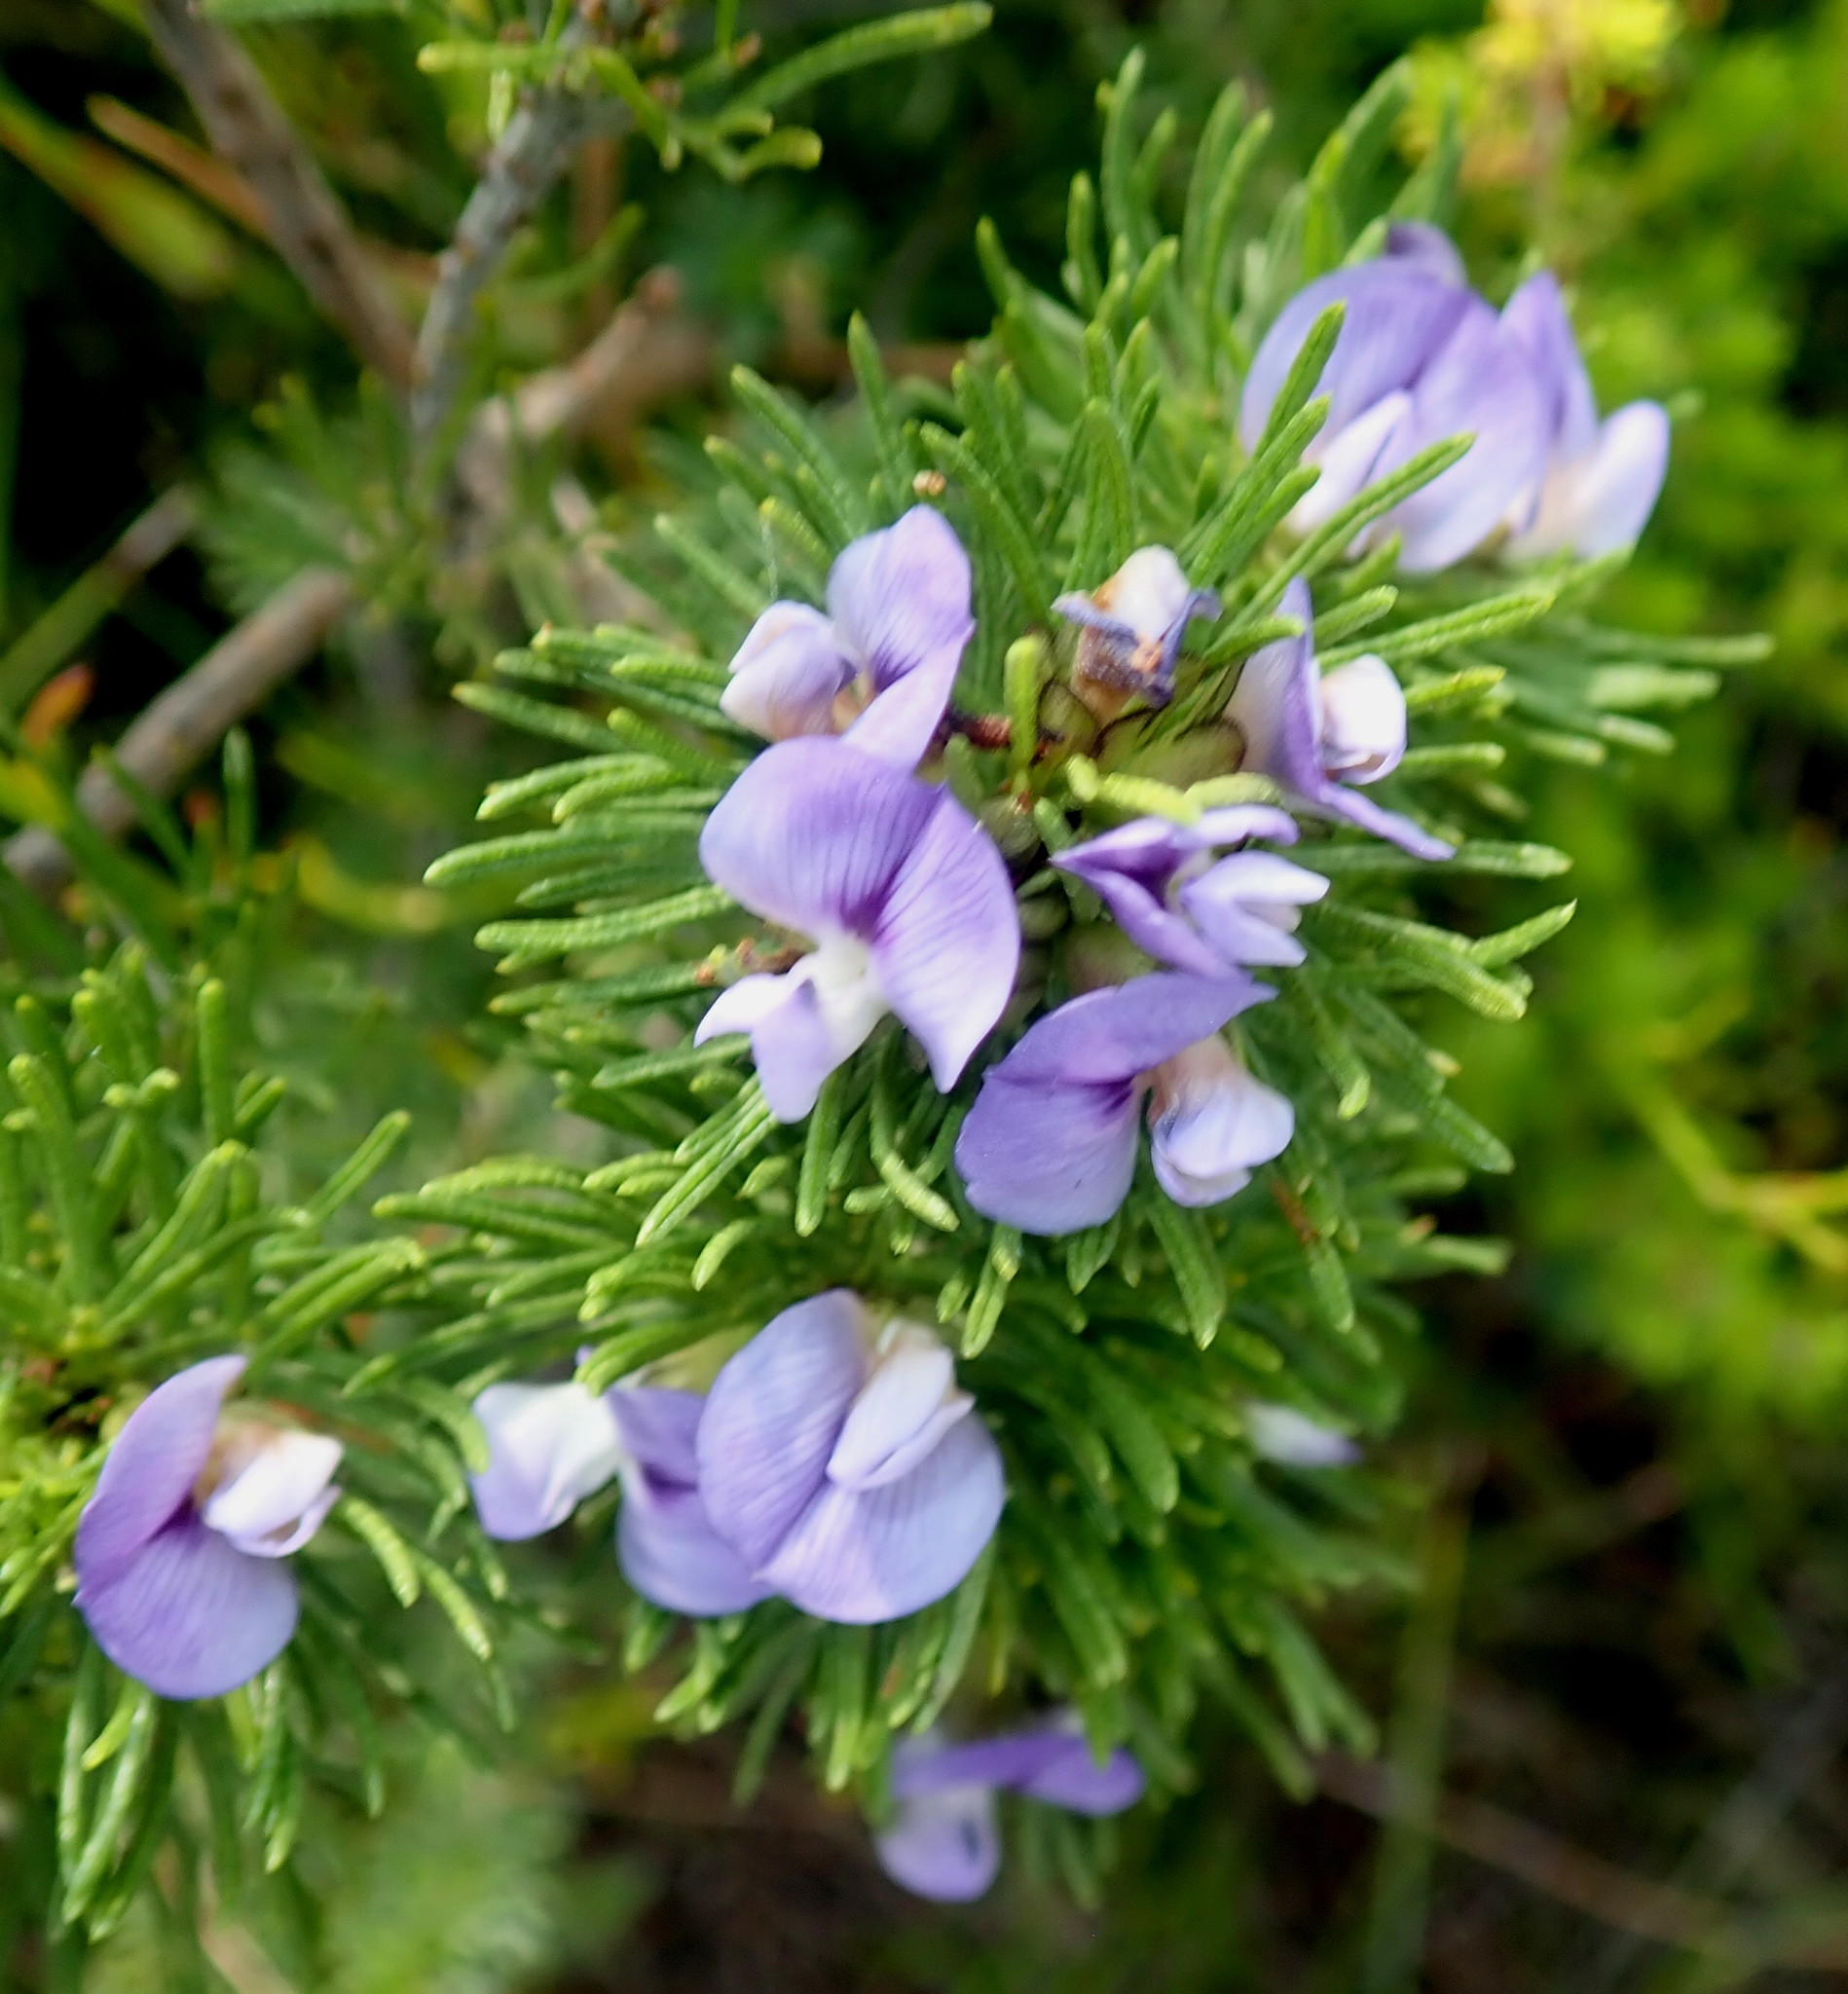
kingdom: Plantae
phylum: Tracheophyta
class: Magnoliopsida
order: Fabales
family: Fabaceae
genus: Psoralea
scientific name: Psoralea vanberkelae
